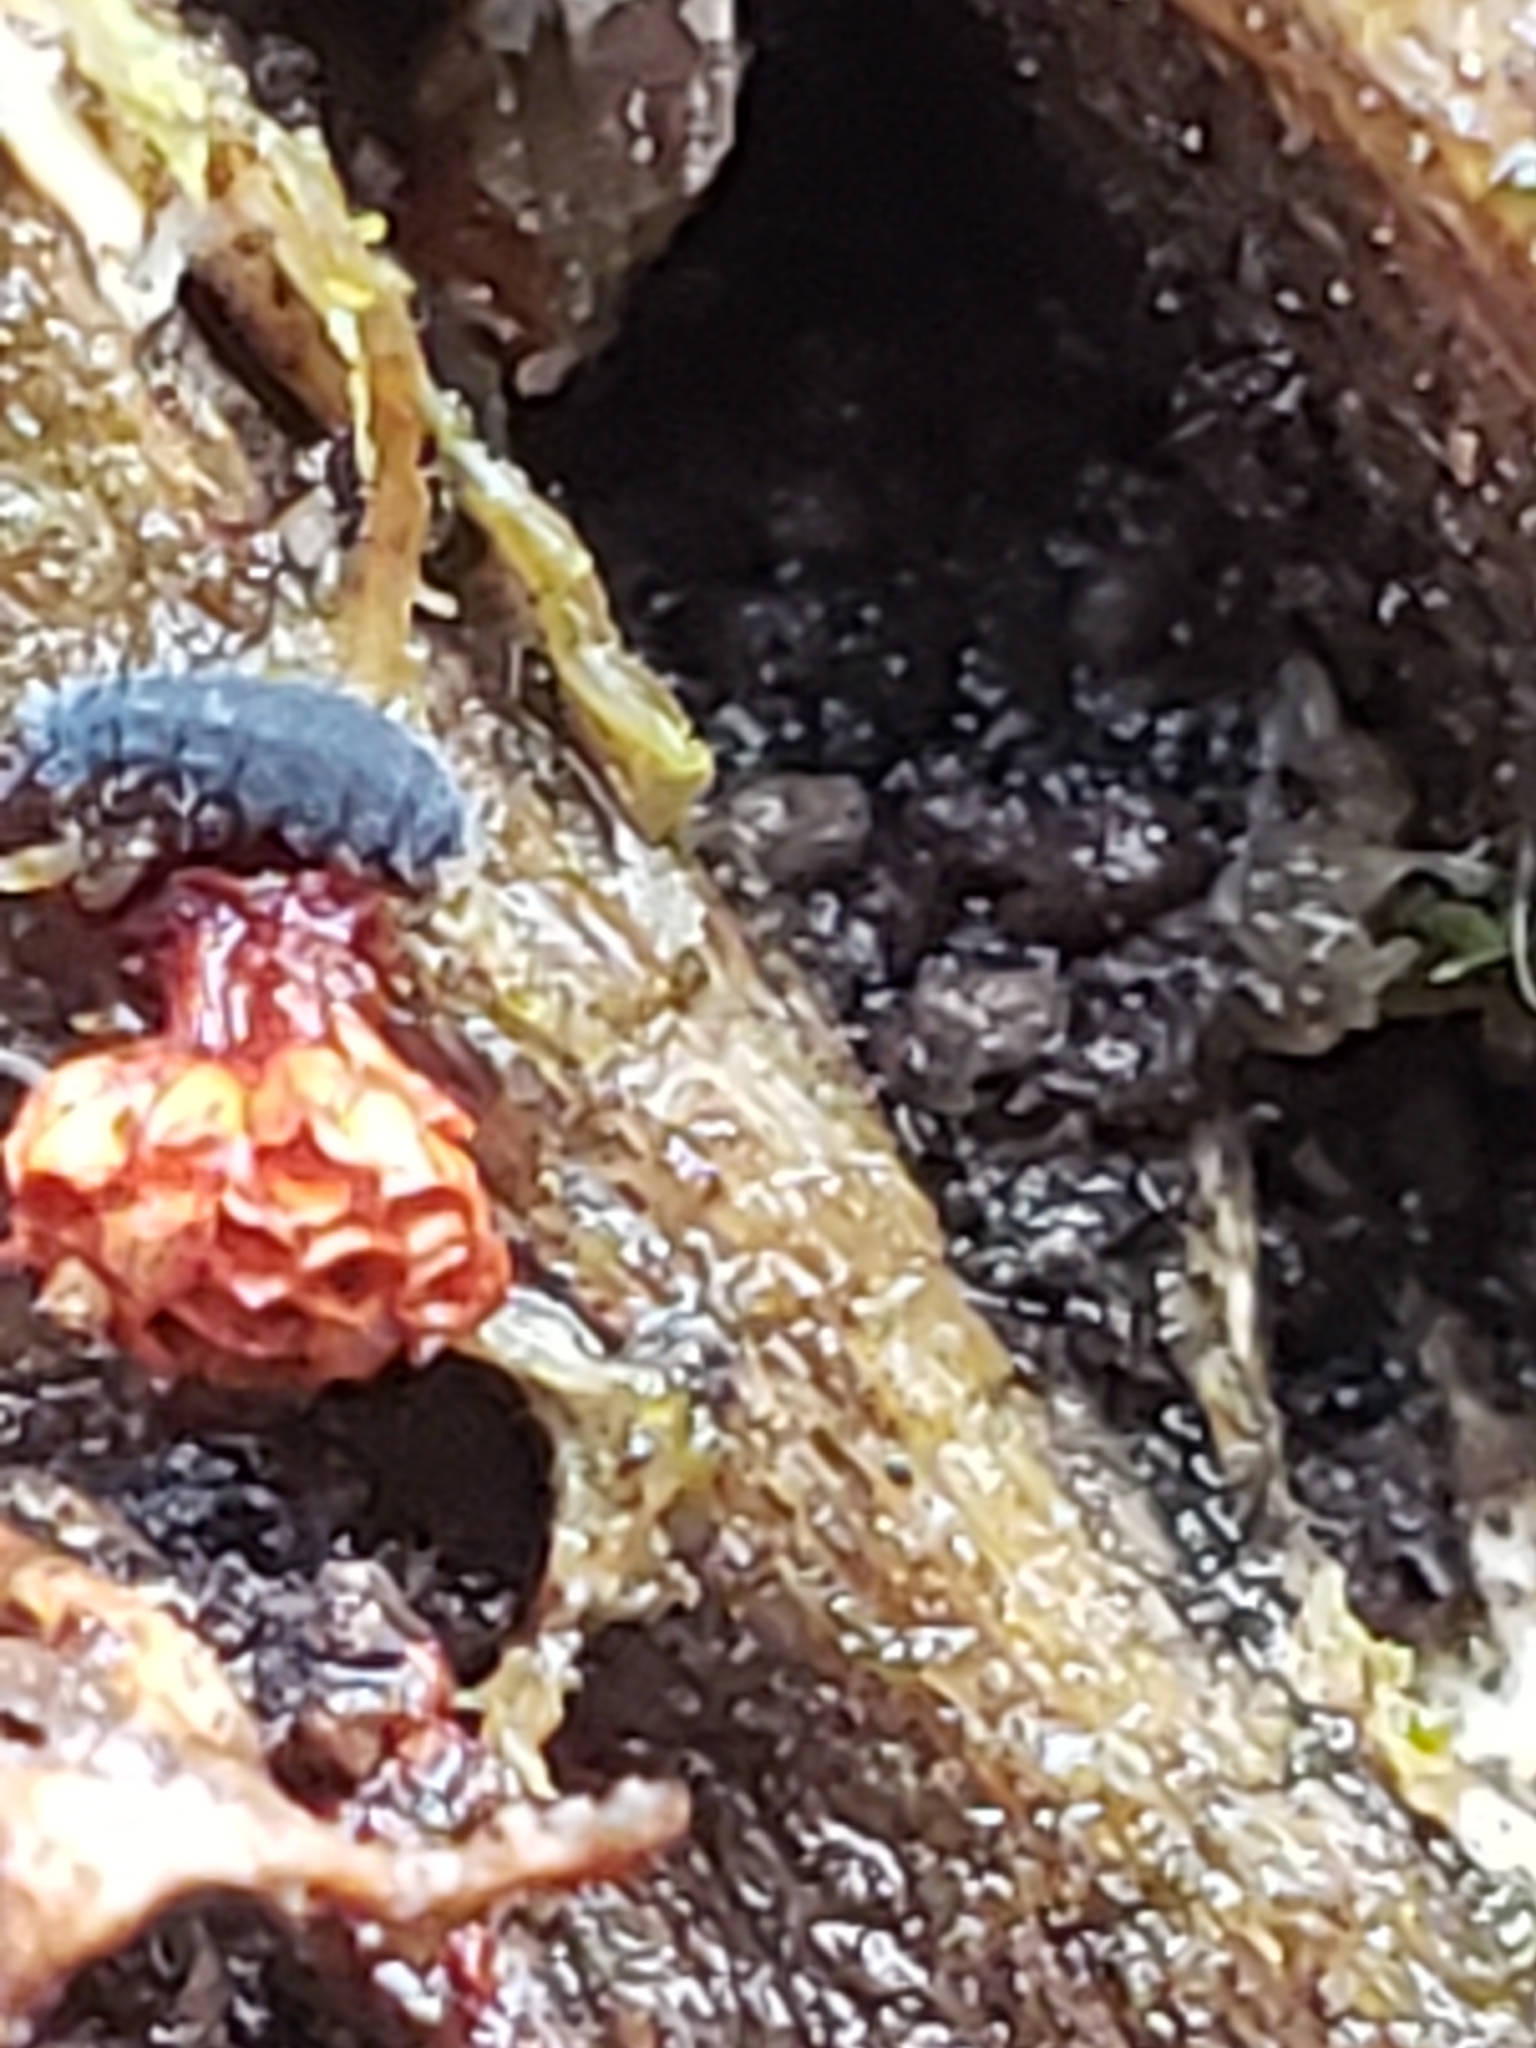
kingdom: Protozoa
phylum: Mycetozoa
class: Myxomycetes
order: Trichiales
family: Trichiaceae
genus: Metatrichia
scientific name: Metatrichia vesparia
